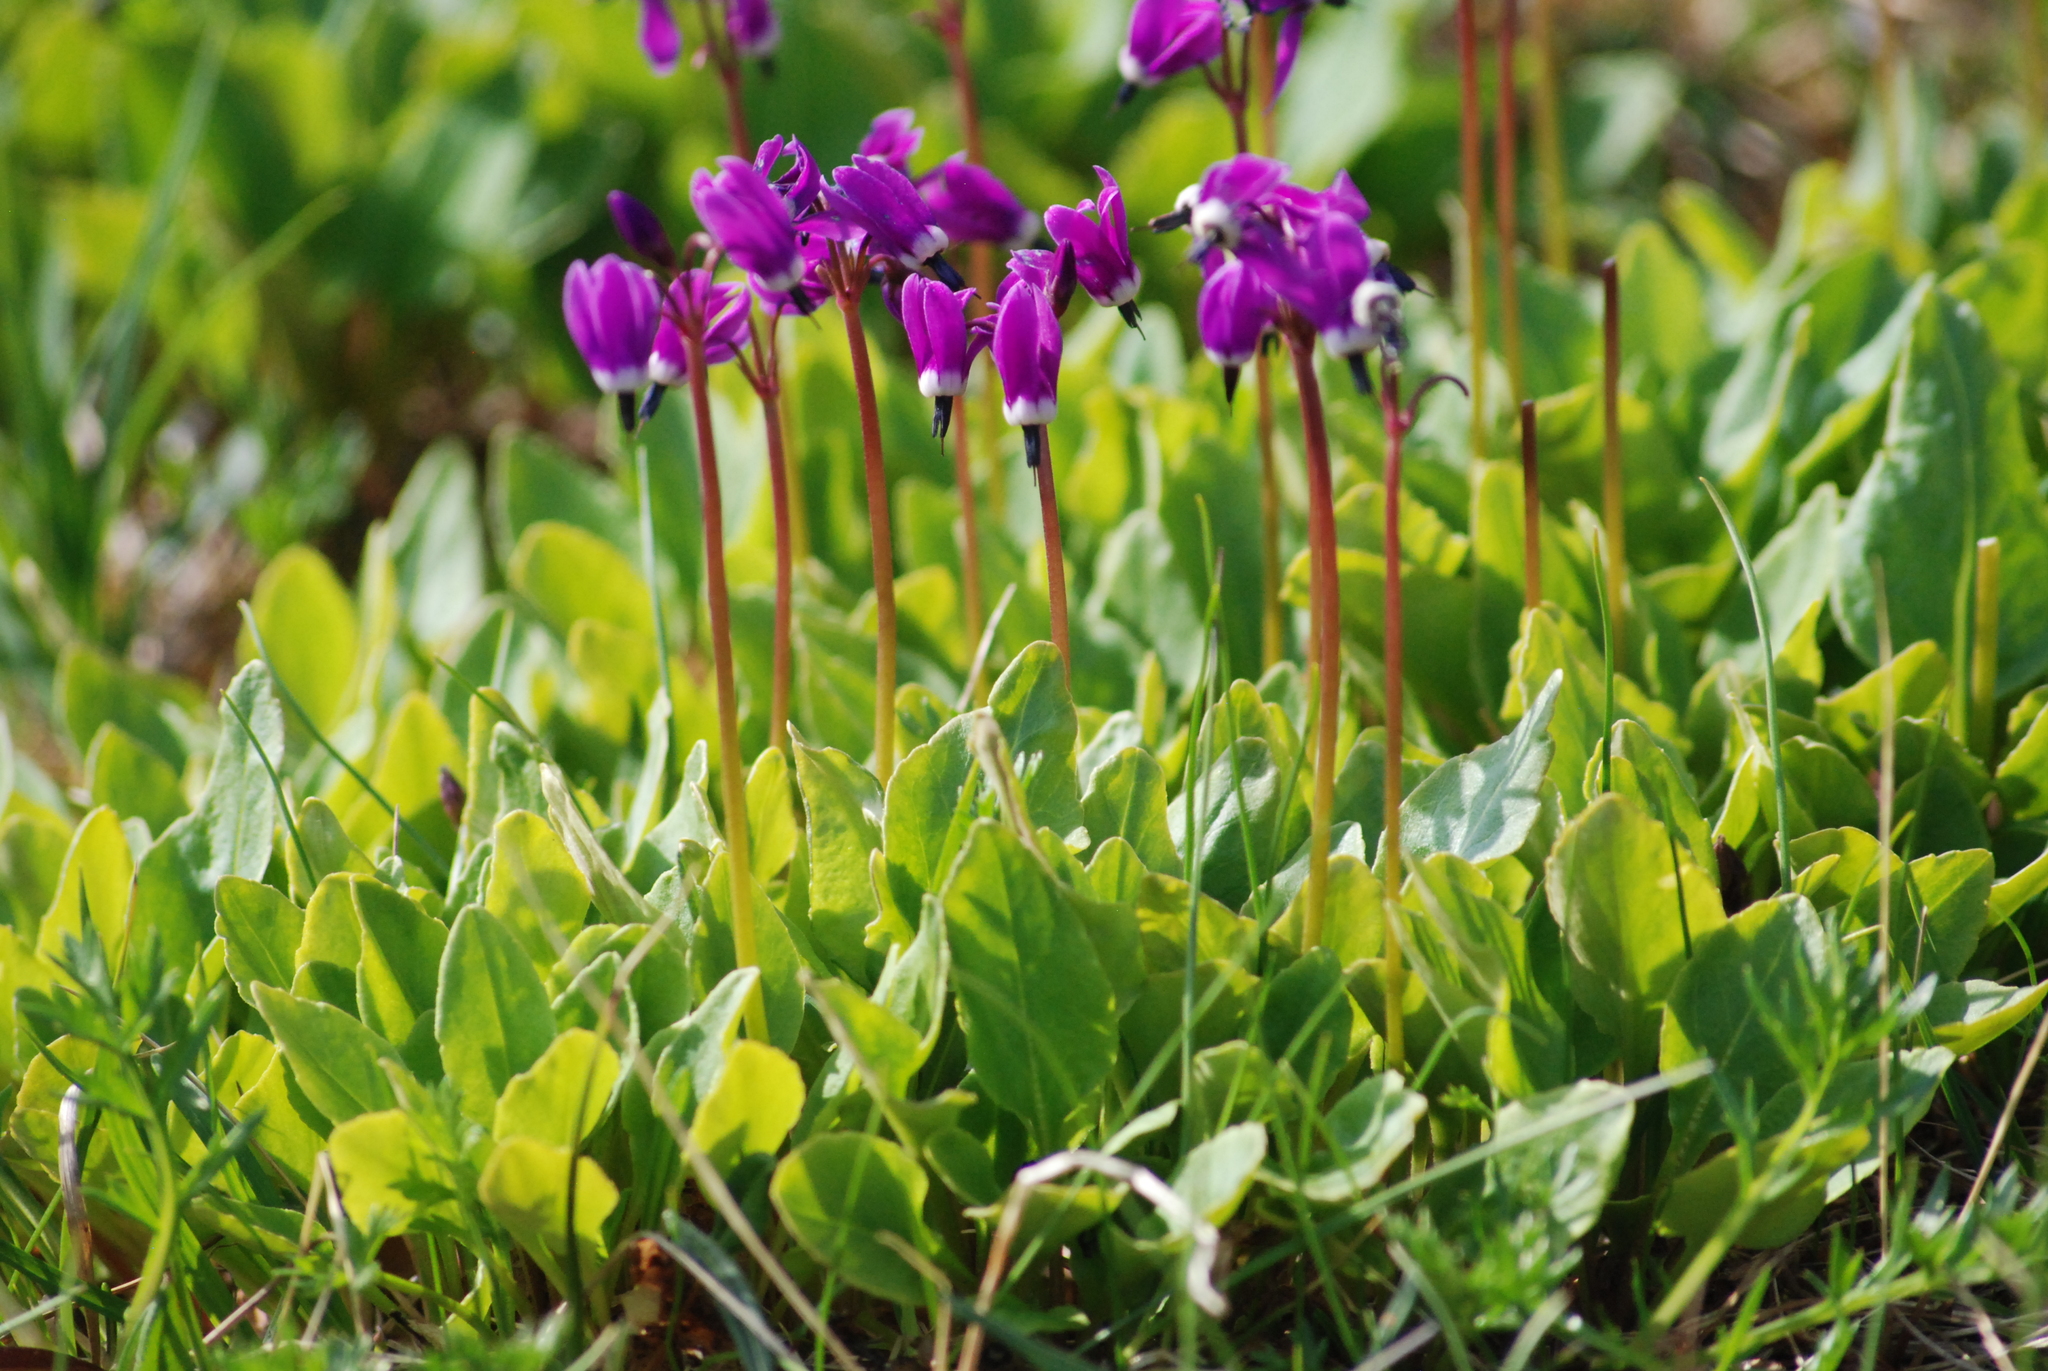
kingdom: Plantae
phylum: Tracheophyta
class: Magnoliopsida
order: Ericales
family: Primulaceae
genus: Dodecatheon
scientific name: Dodecatheon frigidum
